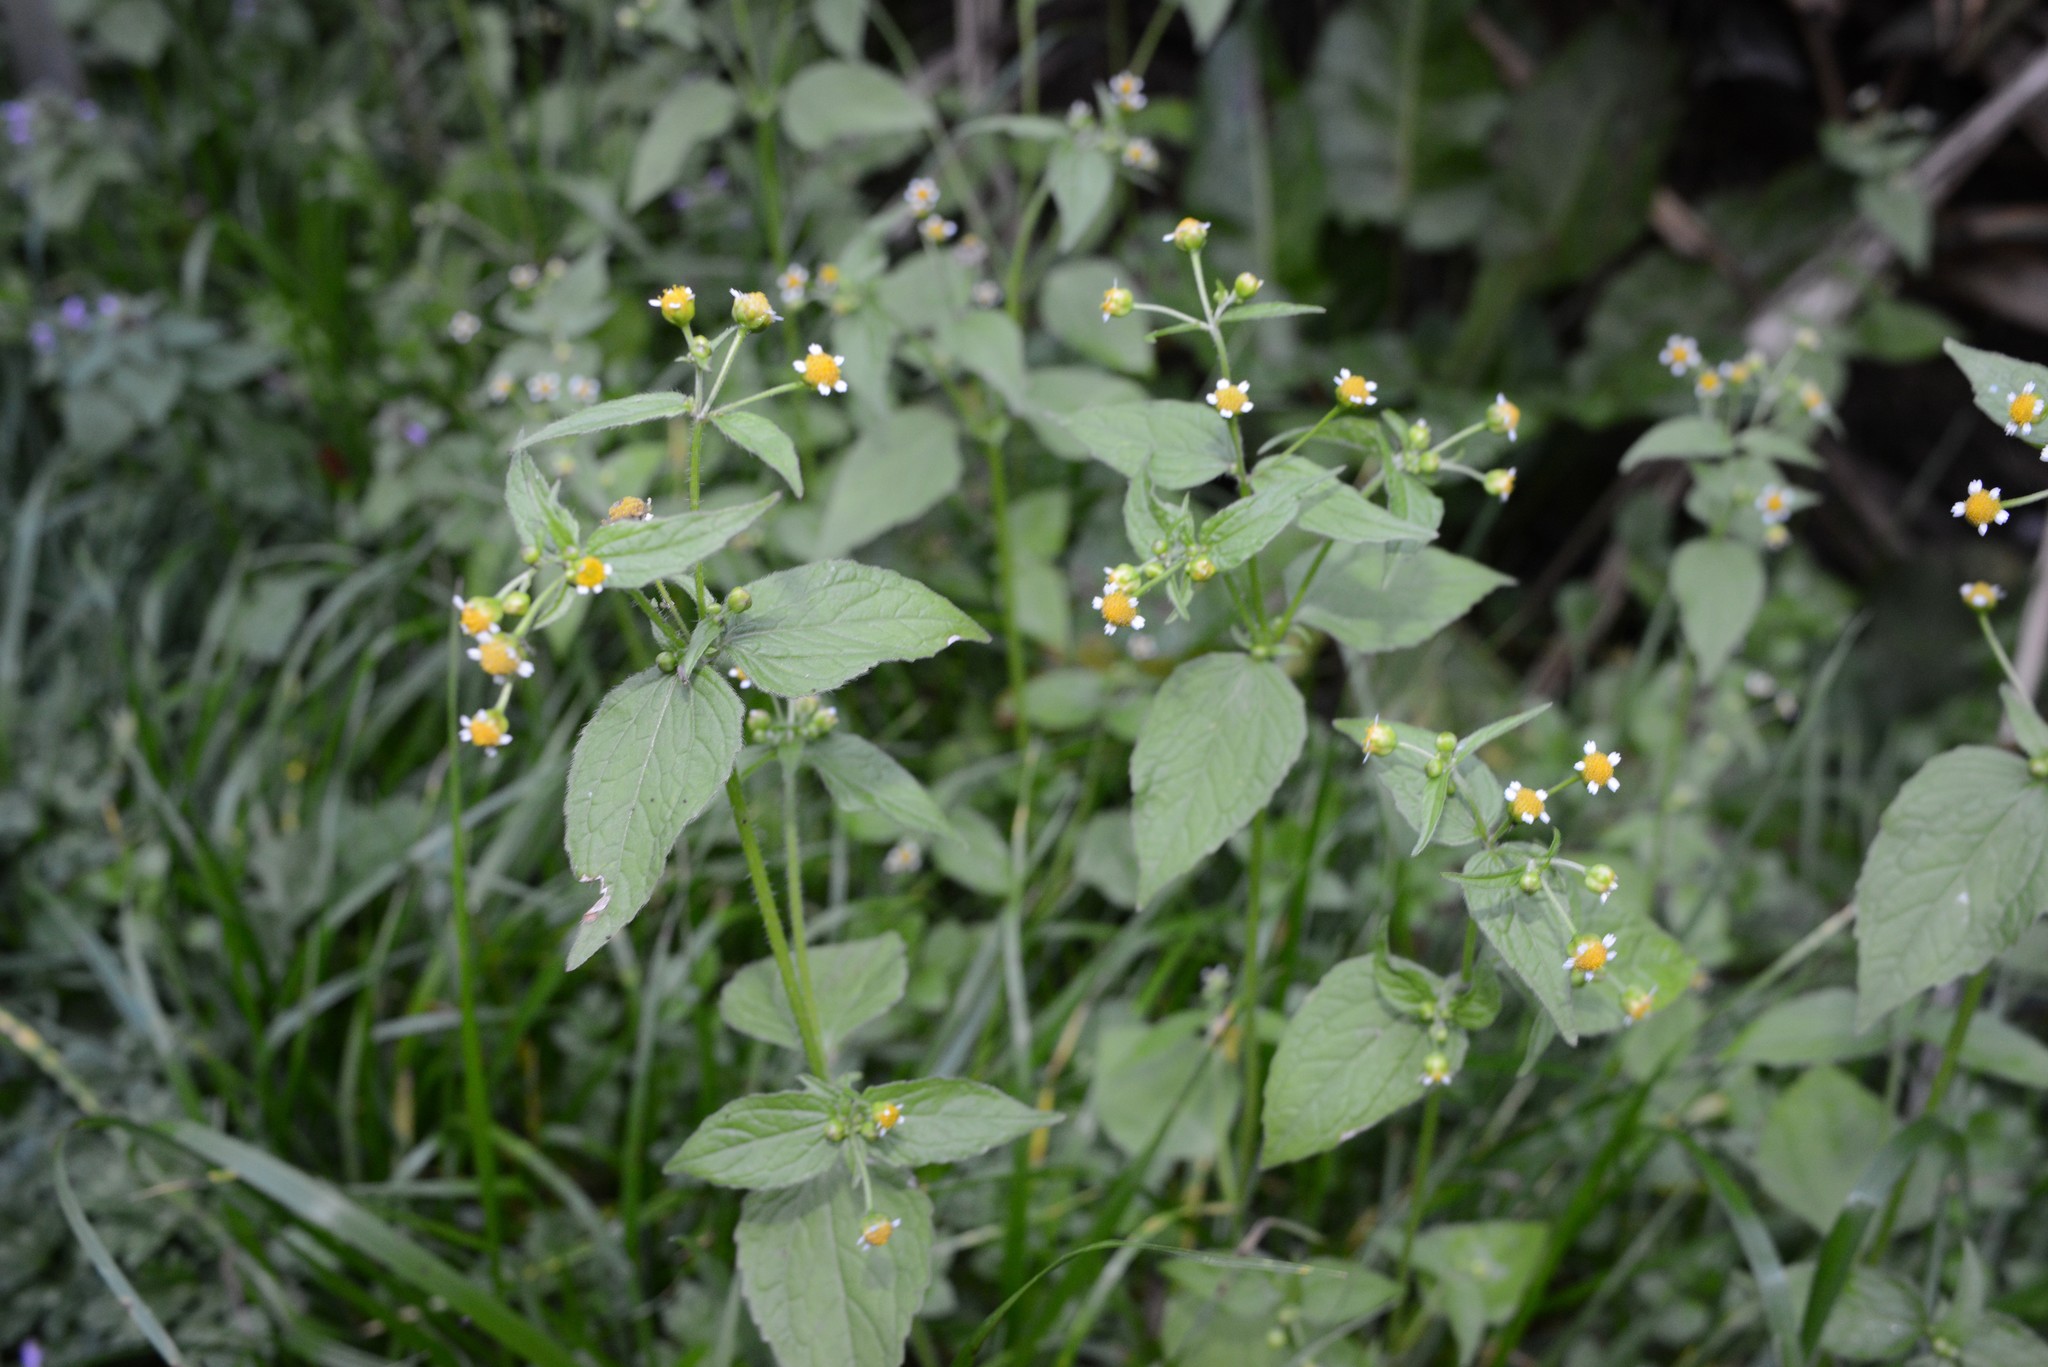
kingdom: Plantae
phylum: Tracheophyta
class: Magnoliopsida
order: Asterales
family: Asteraceae
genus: Galinsoga
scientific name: Galinsoga parviflora
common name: Gallant soldier
